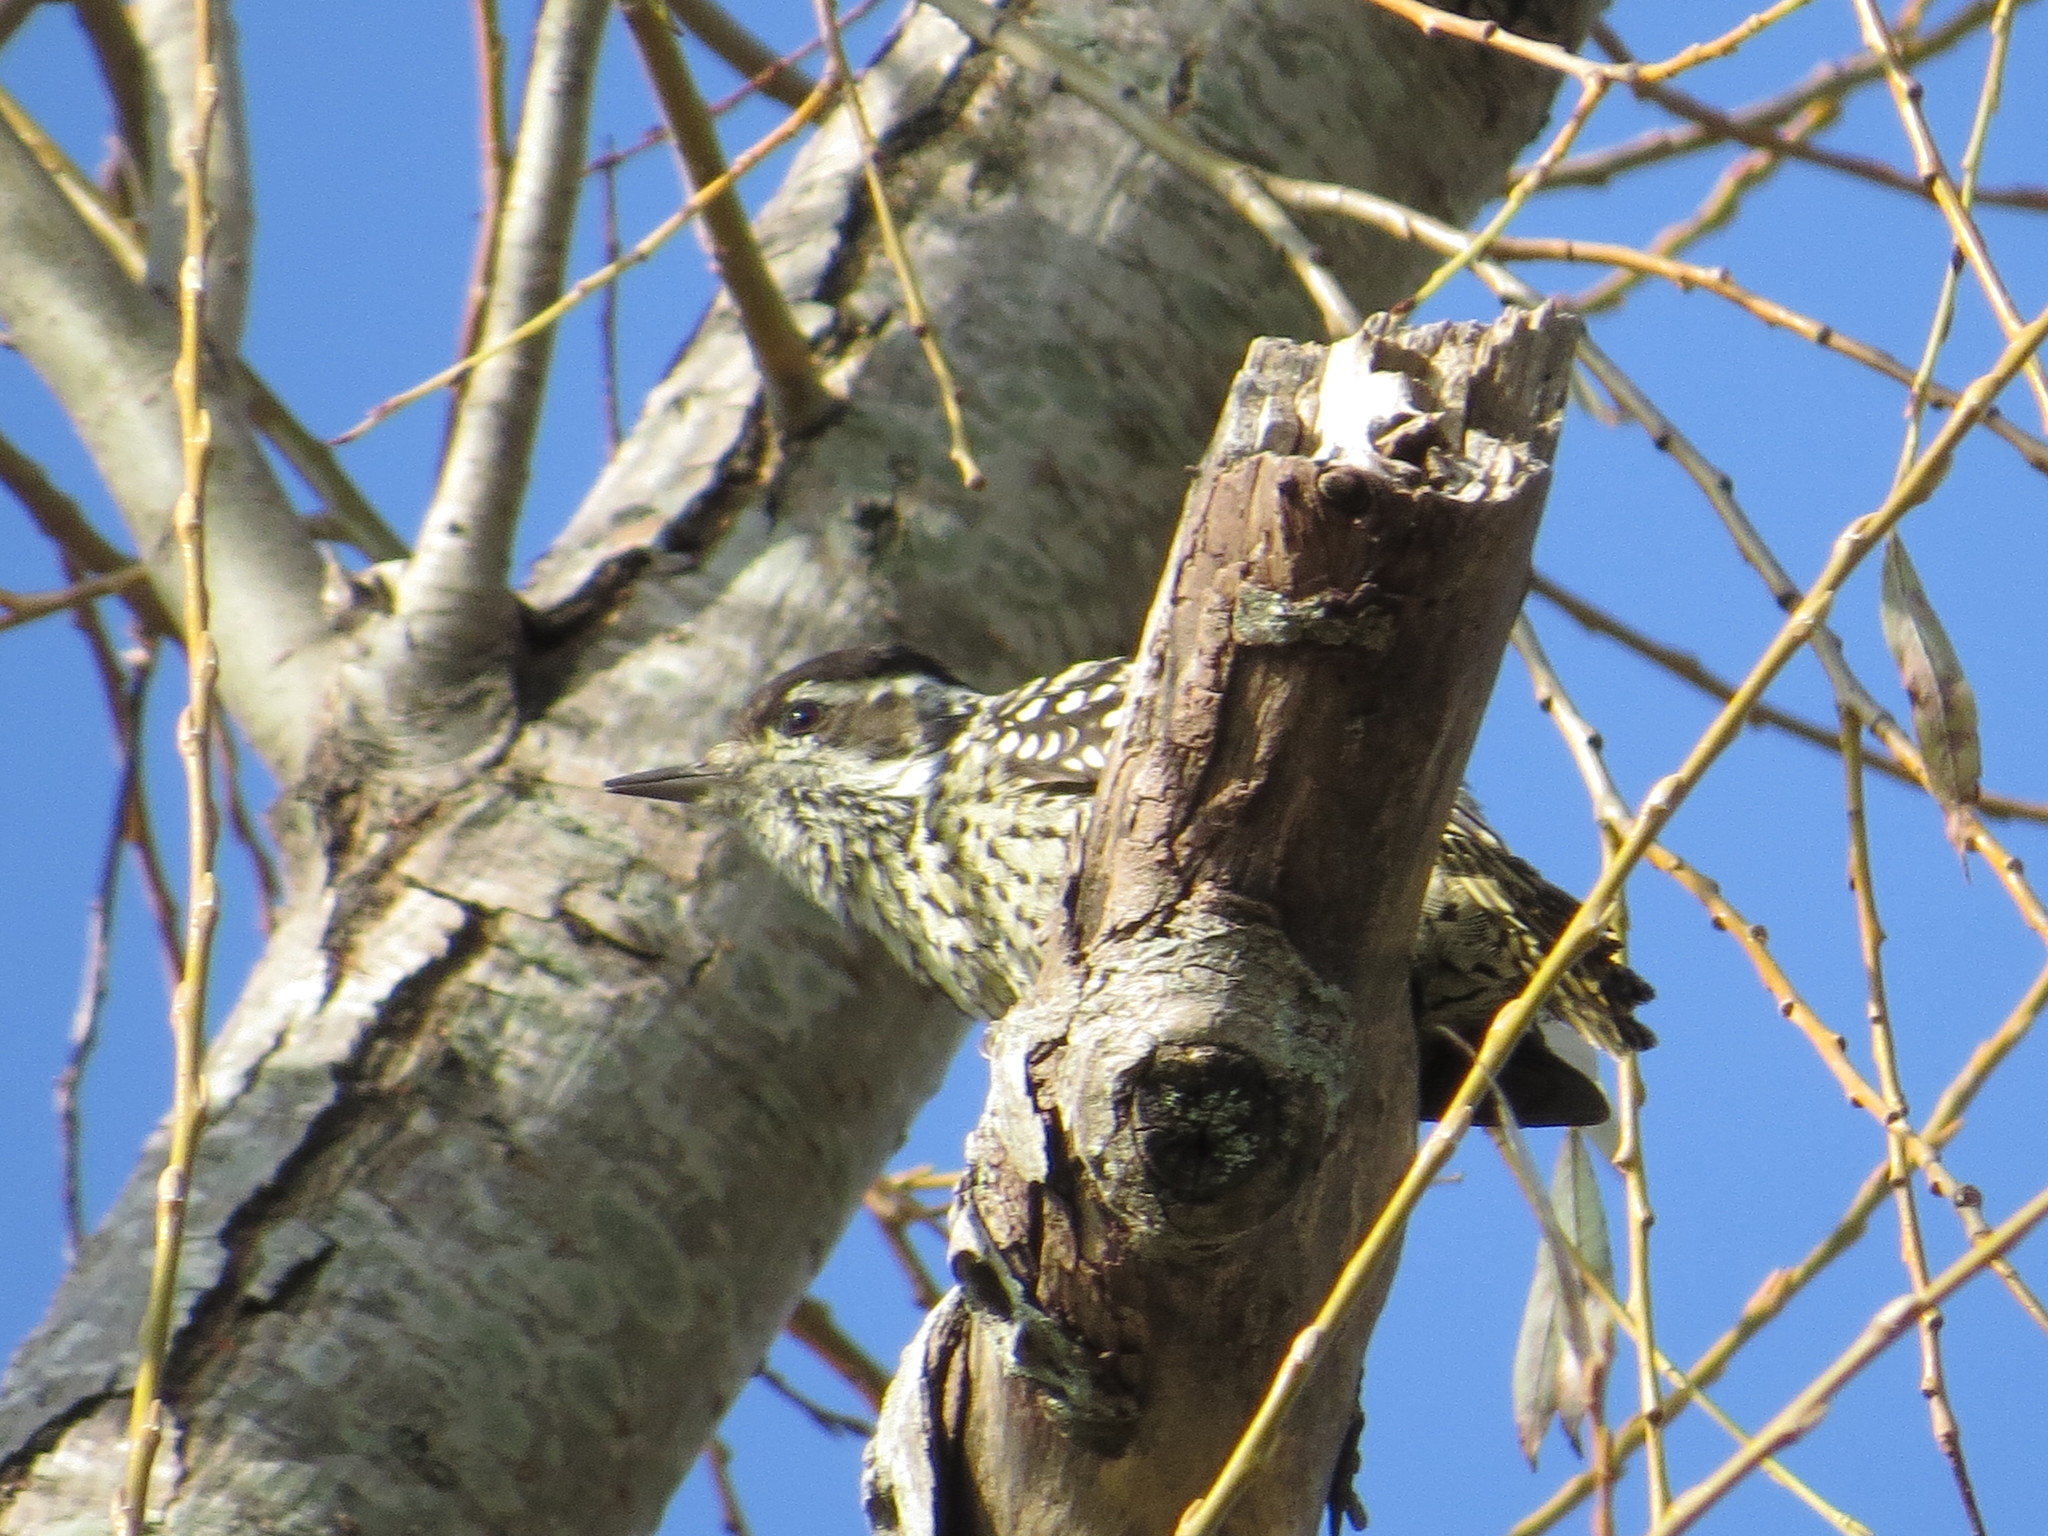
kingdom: Animalia
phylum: Chordata
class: Aves
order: Piciformes
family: Picidae
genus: Veniliornis
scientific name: Veniliornis mixtus
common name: Checkered woodpecker
